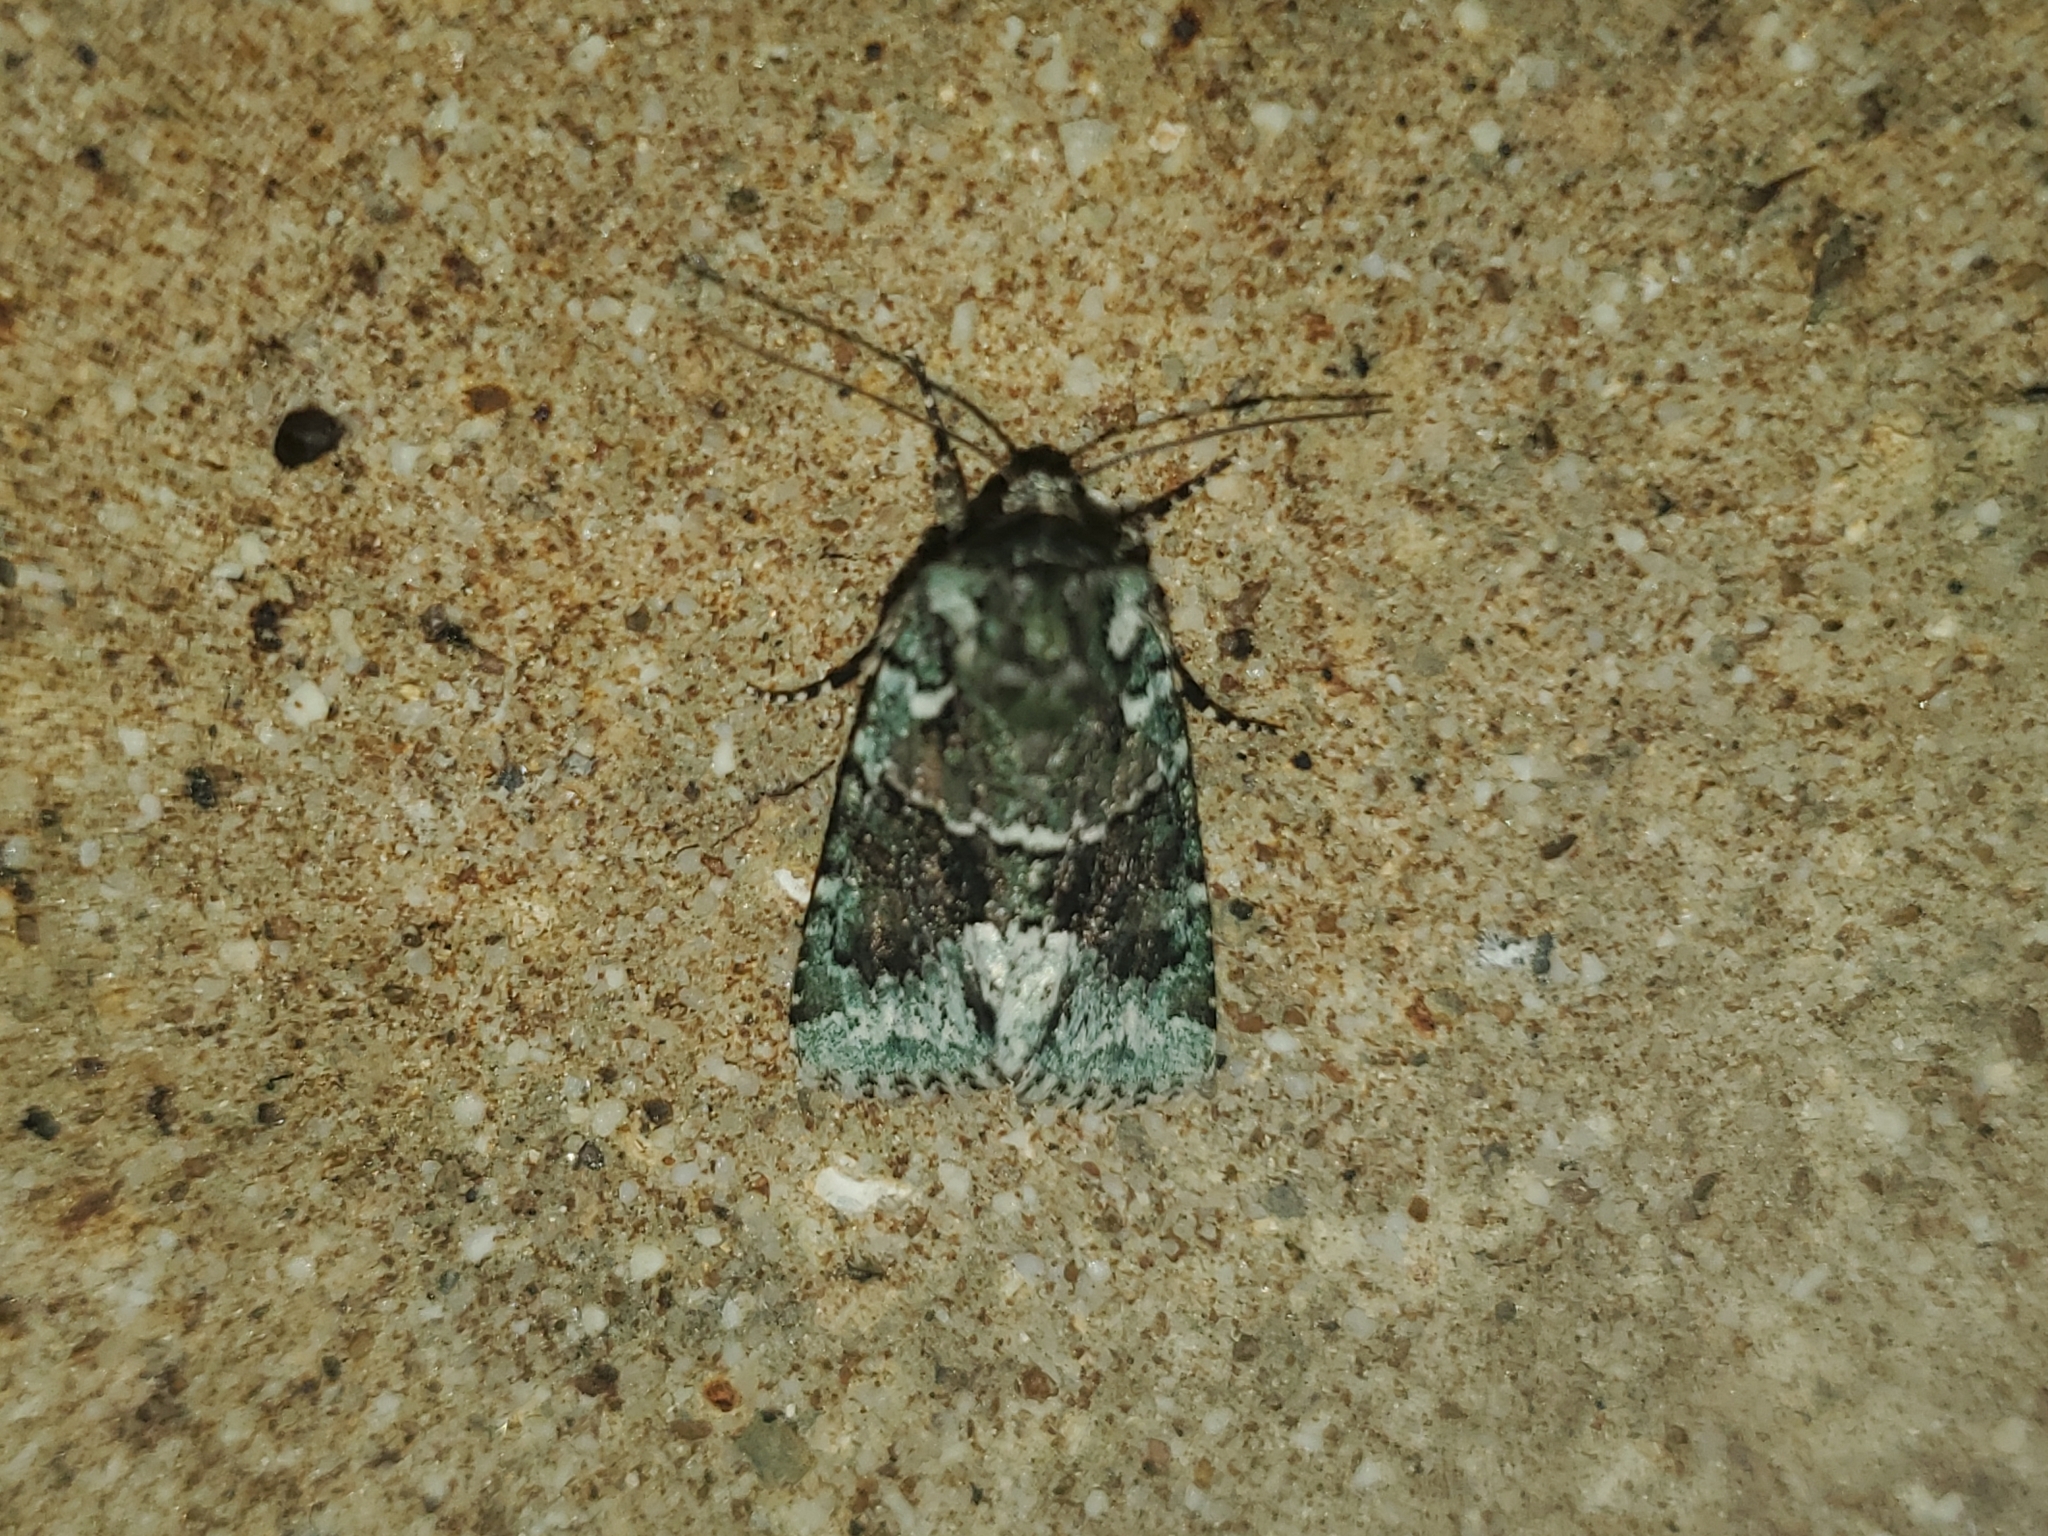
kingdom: Animalia
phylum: Arthropoda
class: Insecta
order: Lepidoptera
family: Noctuidae
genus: Lacinipolia
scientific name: Lacinipolia explicata
